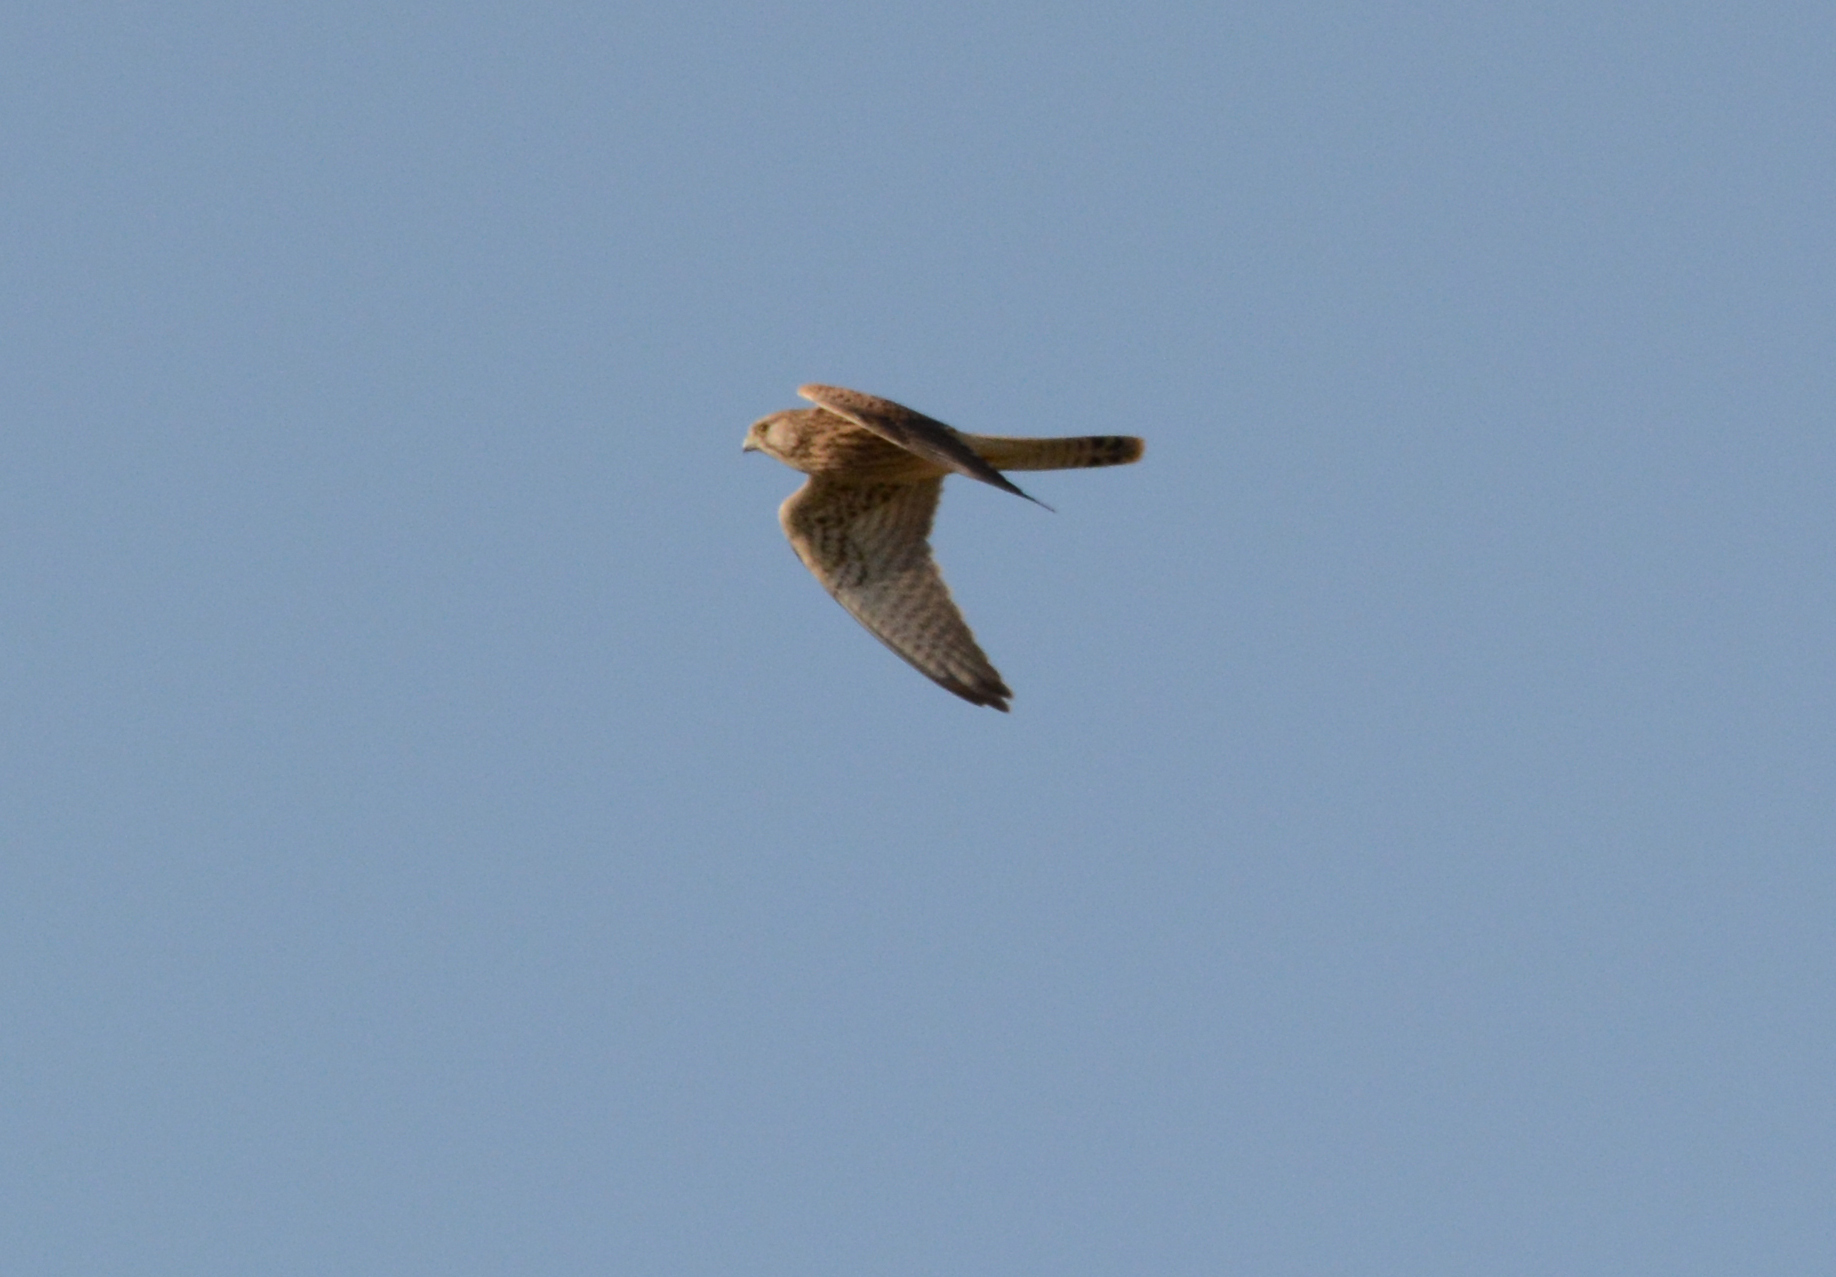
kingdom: Animalia
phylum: Chordata
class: Aves
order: Falconiformes
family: Falconidae
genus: Falco
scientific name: Falco tinnunculus
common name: Common kestrel
